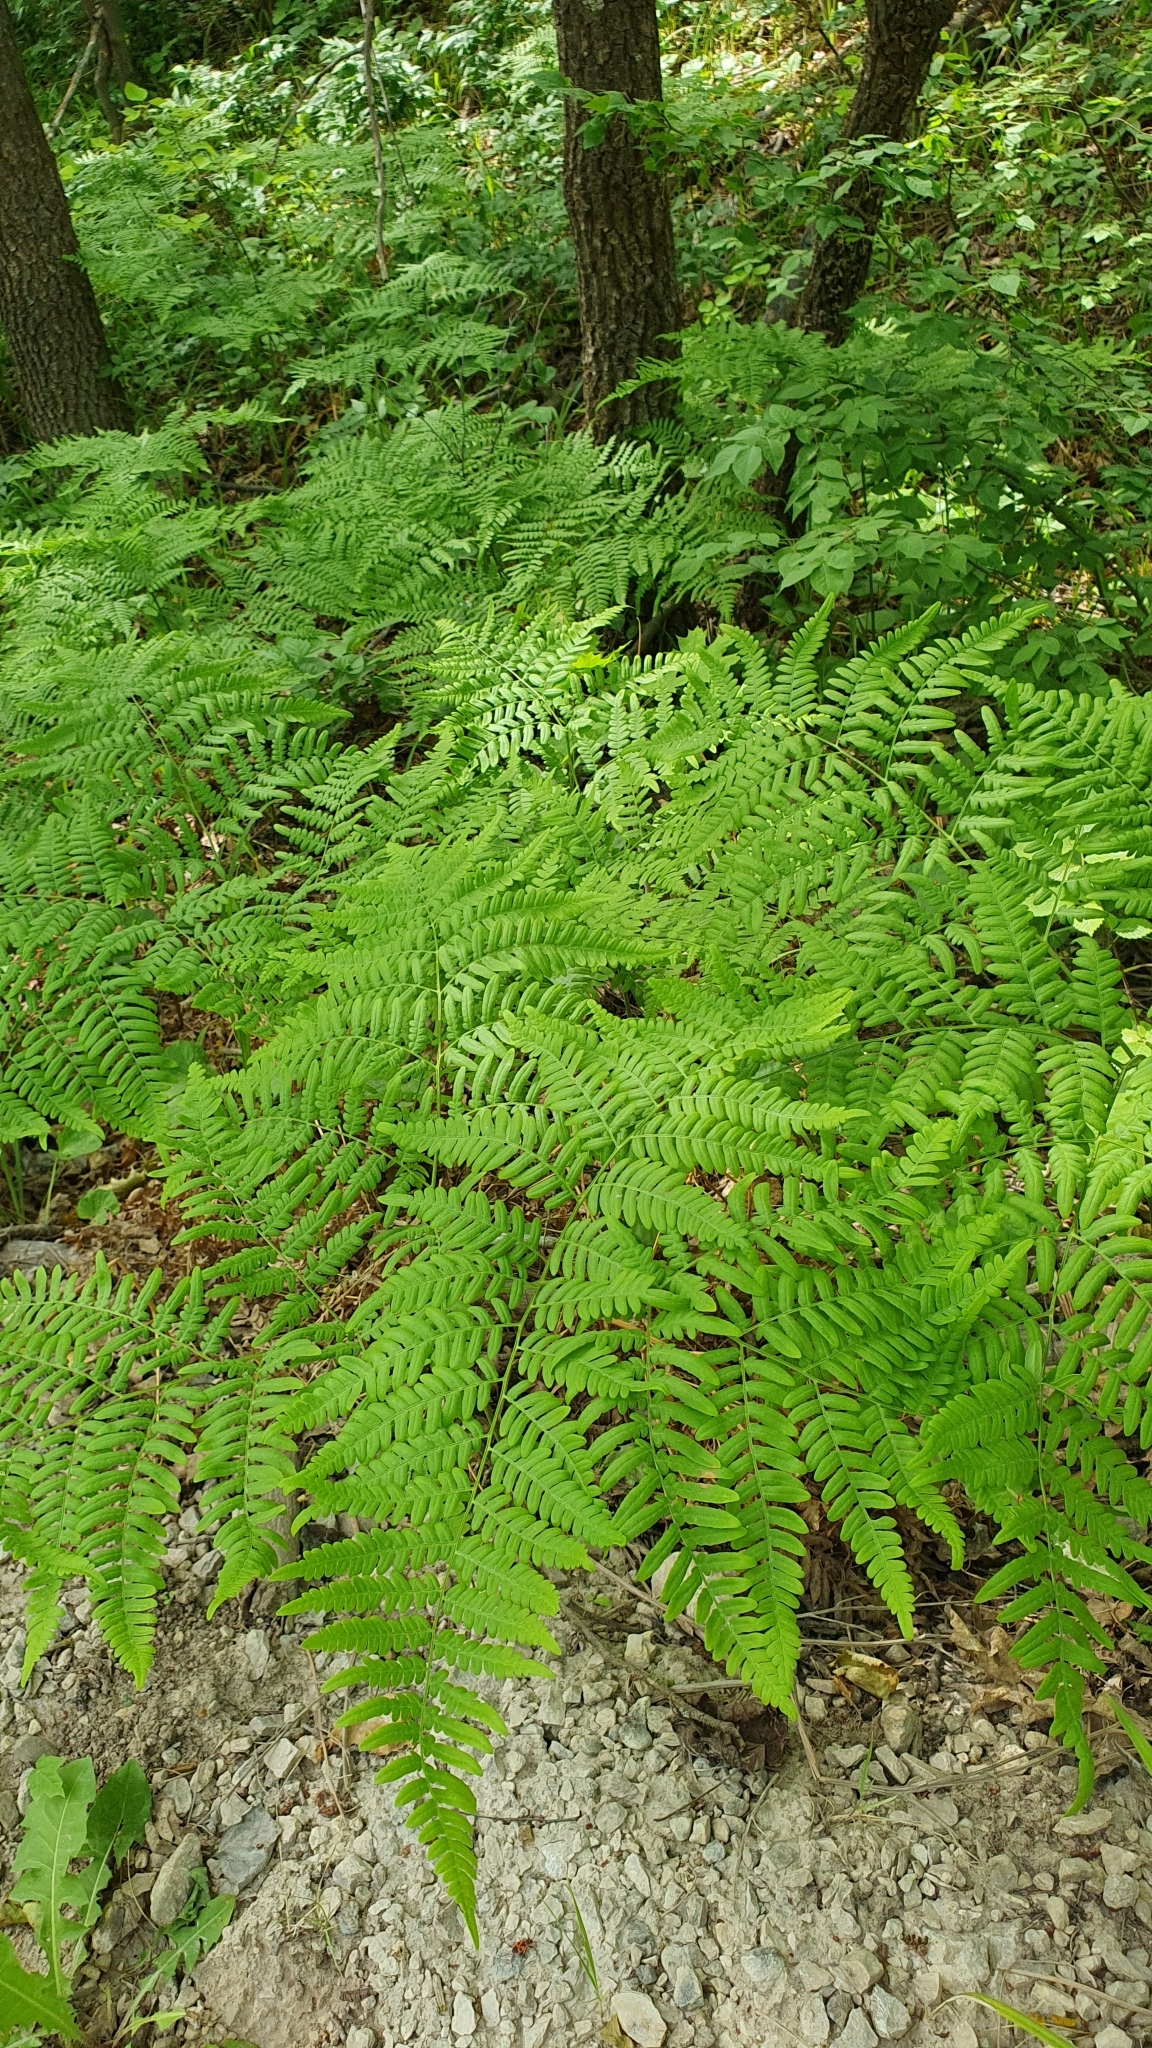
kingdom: Plantae
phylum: Tracheophyta
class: Polypodiopsida
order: Polypodiales
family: Dennstaedtiaceae
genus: Pteridium
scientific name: Pteridium aquilinum
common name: Bracken
